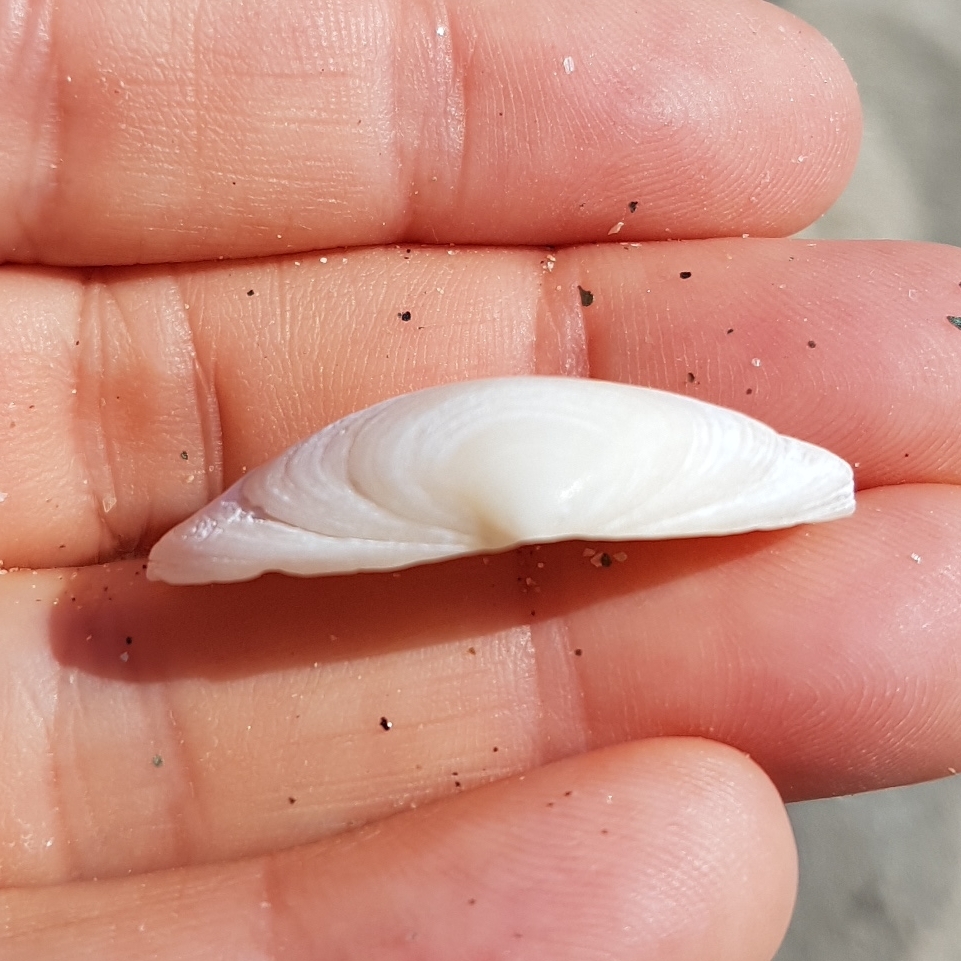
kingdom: Animalia
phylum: Mollusca
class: Bivalvia
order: Venerida
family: Mactridae
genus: Spisula
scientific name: Spisula solida
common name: Thick trough shell
